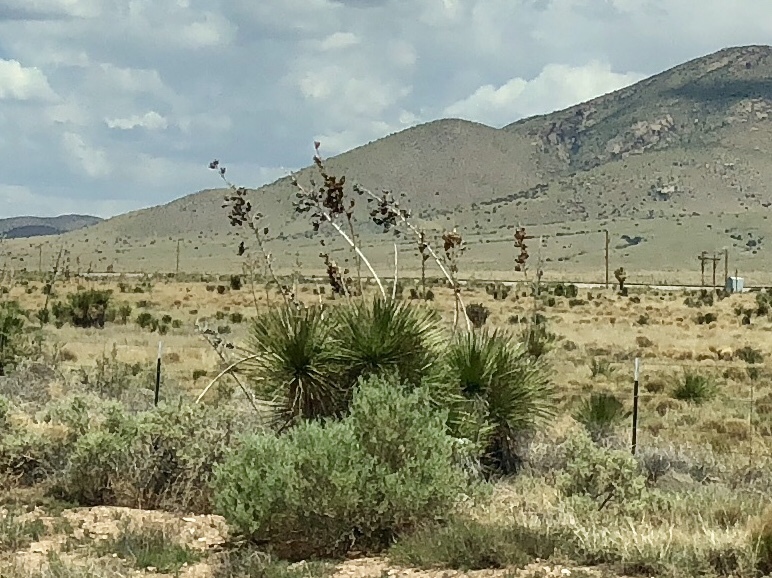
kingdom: Plantae
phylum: Tracheophyta
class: Liliopsida
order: Asparagales
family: Asparagaceae
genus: Yucca
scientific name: Yucca elata
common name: Palmella
